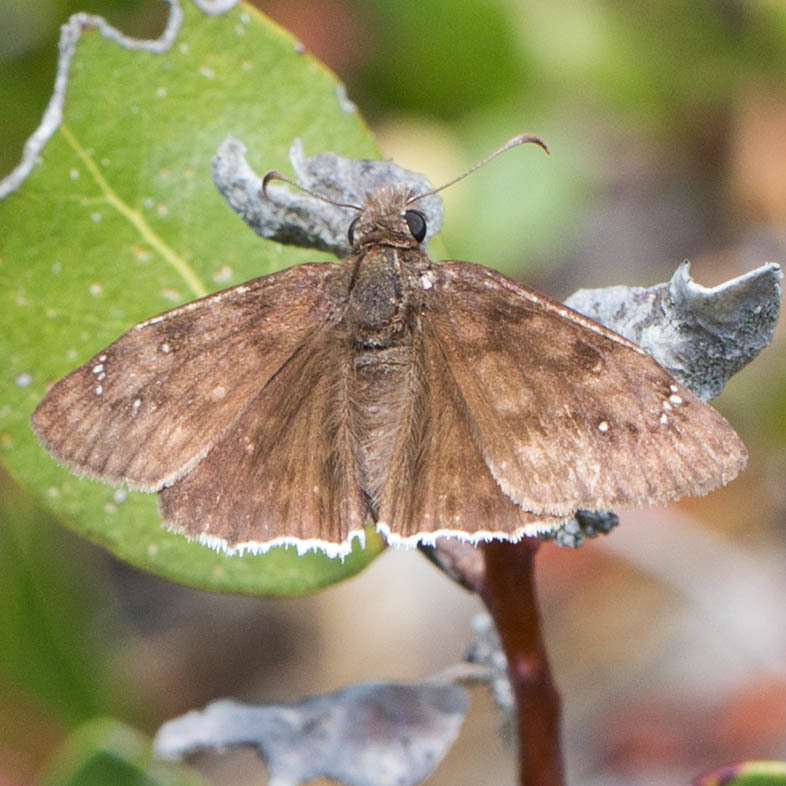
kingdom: Animalia
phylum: Arthropoda
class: Insecta
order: Lepidoptera
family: Hesperiidae
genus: Erynnis
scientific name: Erynnis tristis
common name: Mournful duskywing
